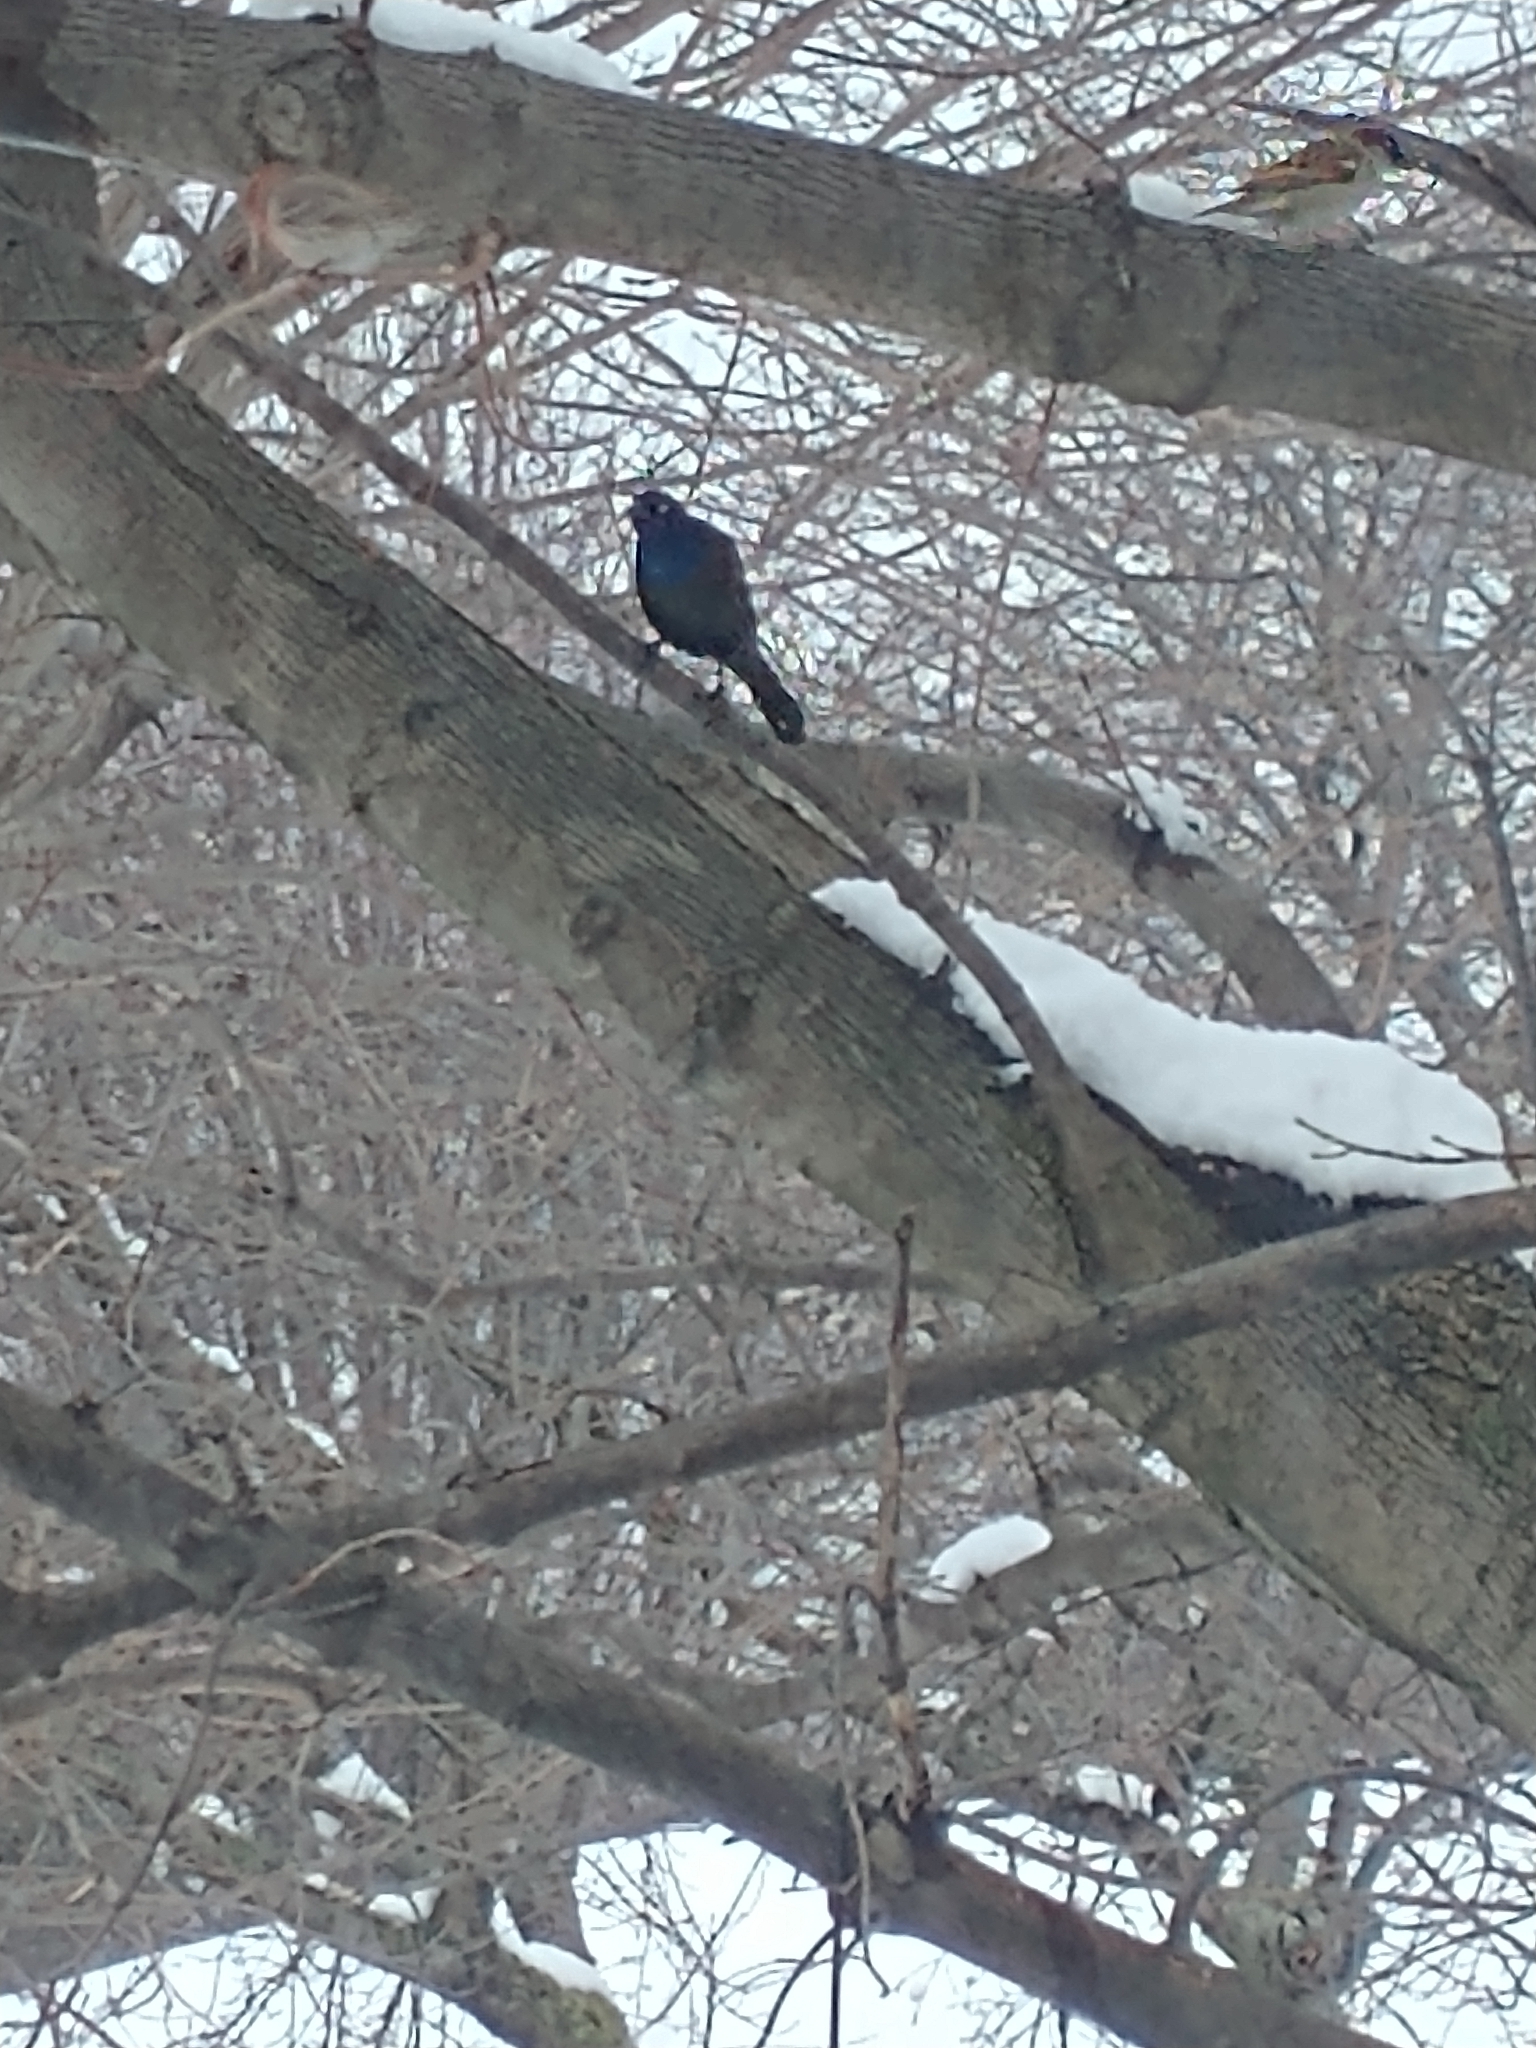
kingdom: Animalia
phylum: Chordata
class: Aves
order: Passeriformes
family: Icteridae
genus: Quiscalus
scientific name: Quiscalus quiscula
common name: Common grackle
